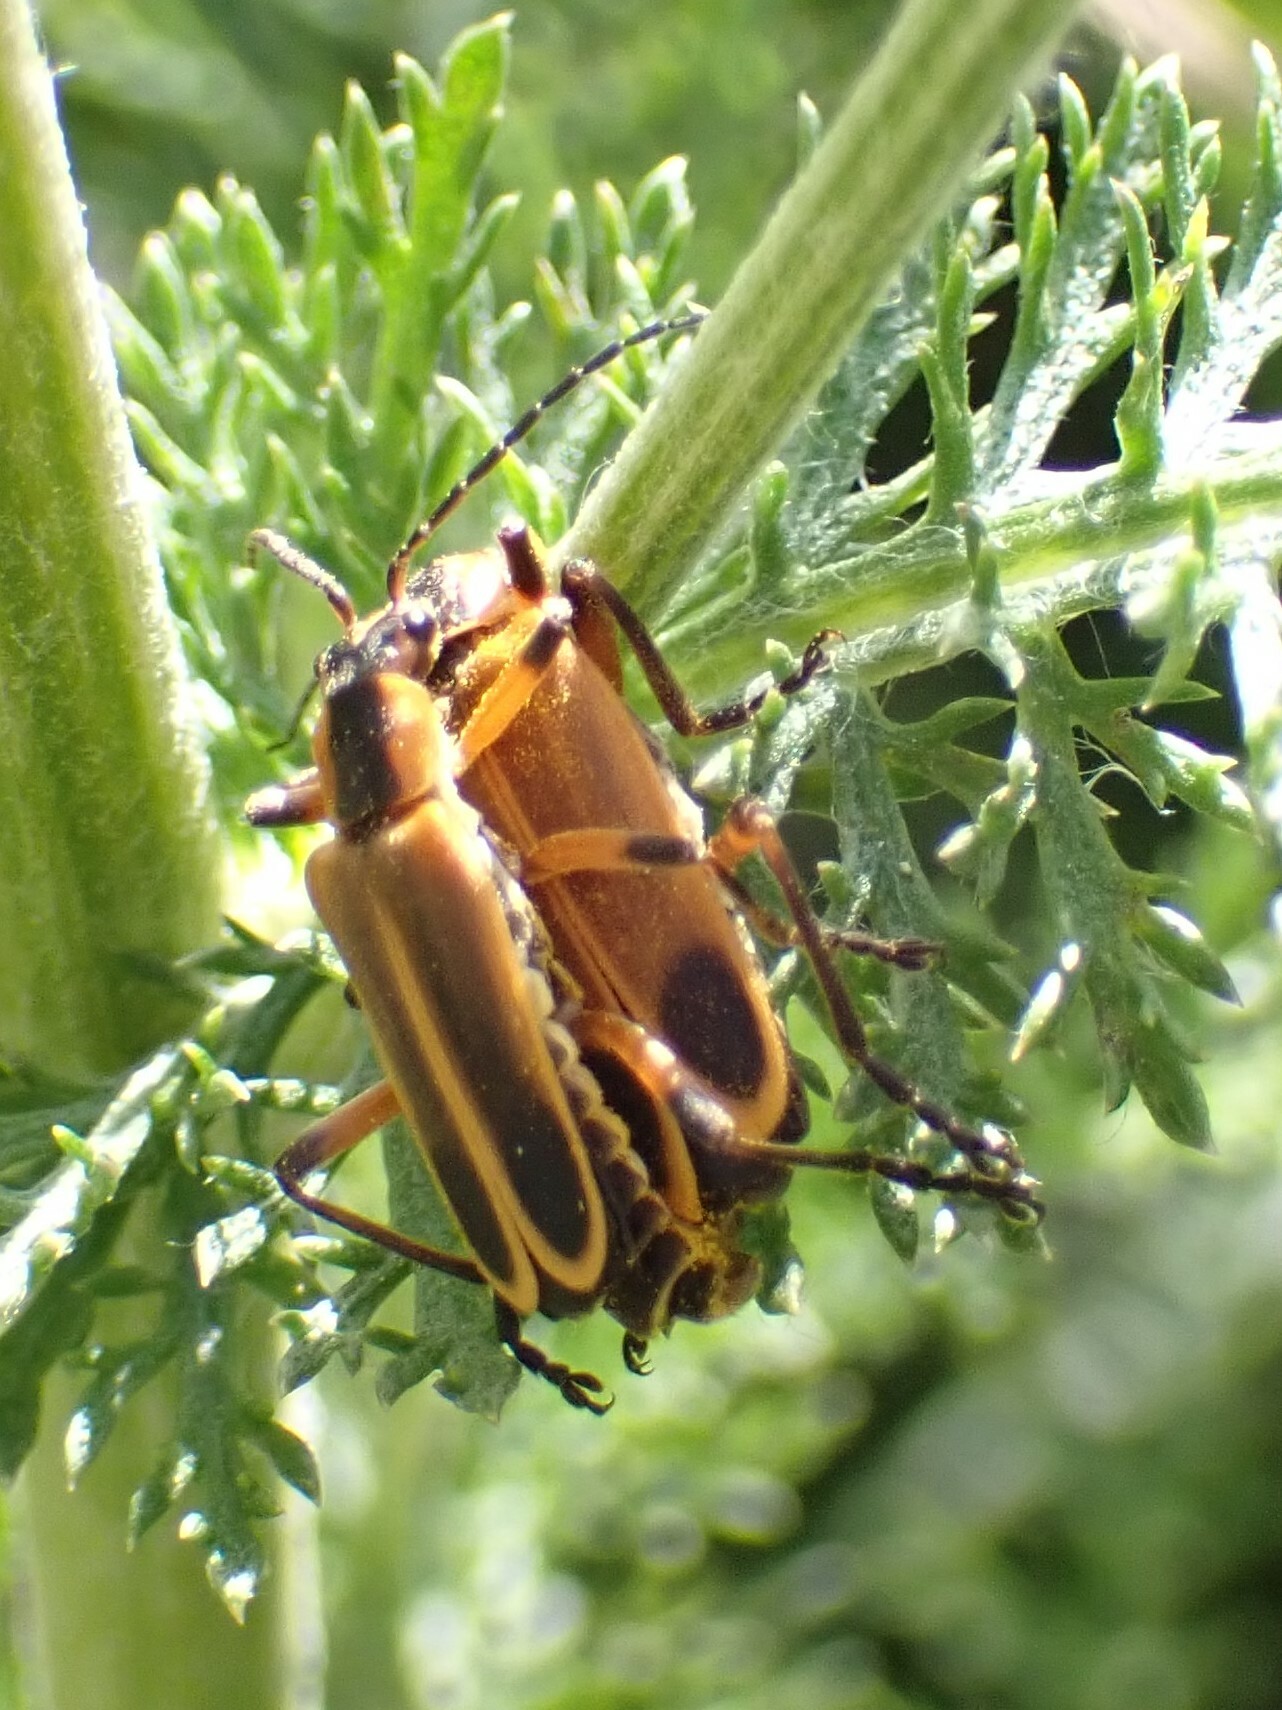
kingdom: Animalia
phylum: Arthropoda
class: Insecta
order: Coleoptera
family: Cantharidae
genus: Chauliognathus
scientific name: Chauliognathus marginatus
